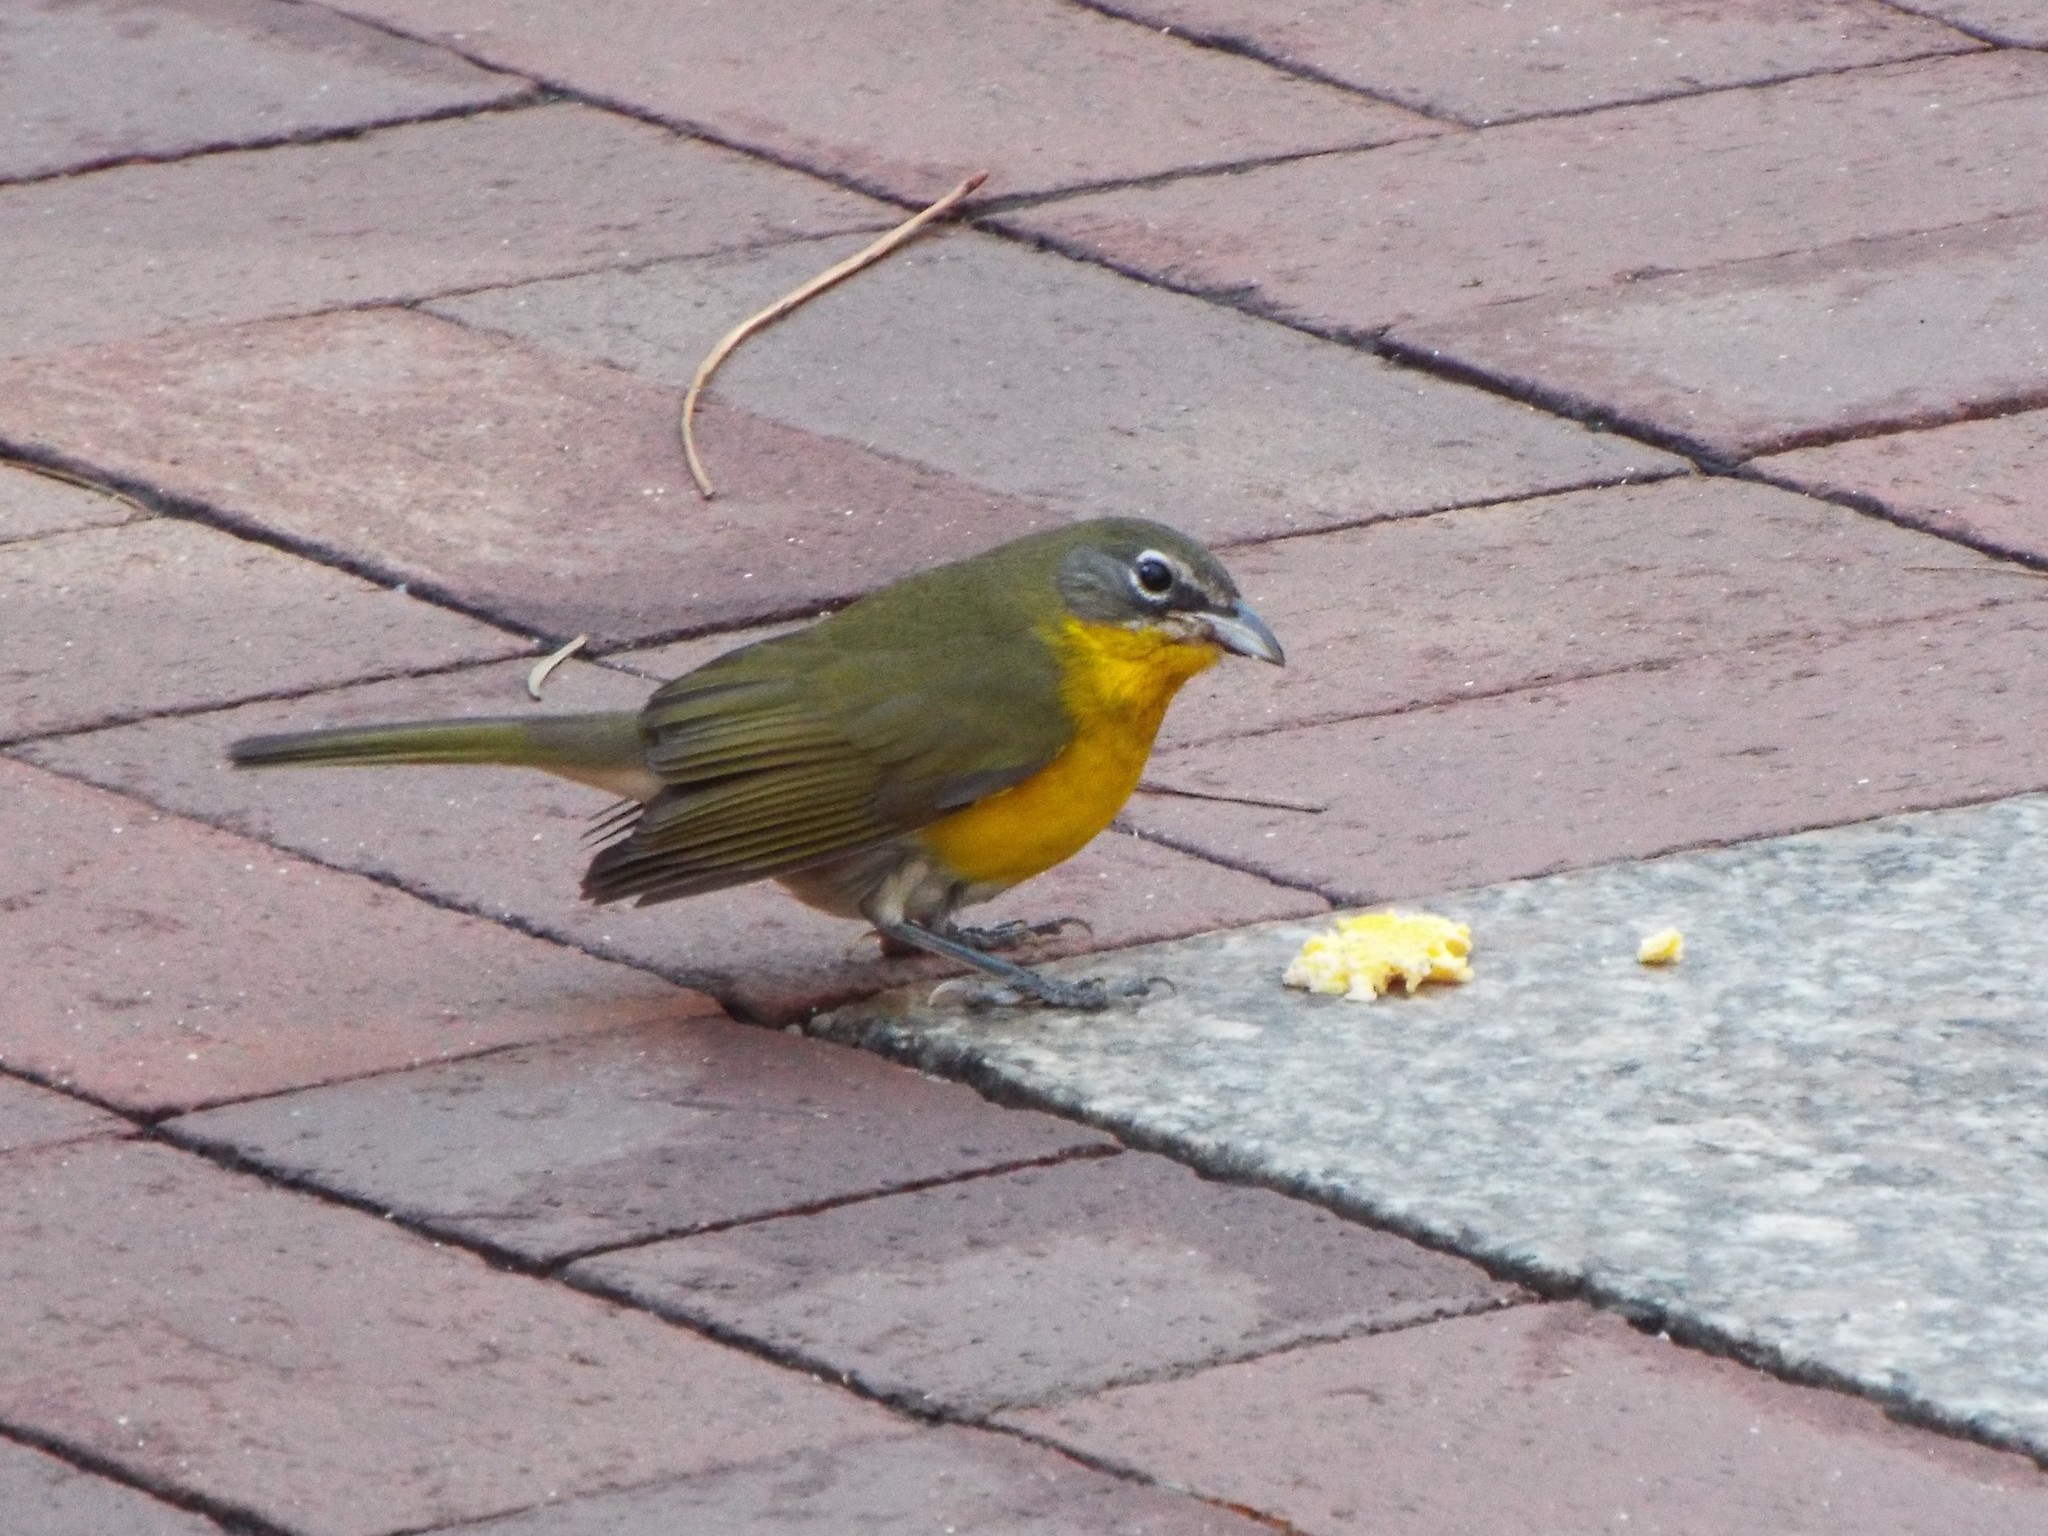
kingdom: Animalia
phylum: Chordata
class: Aves
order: Passeriformes
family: Parulidae
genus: Icteria
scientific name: Icteria virens
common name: Yellow-breasted chat
